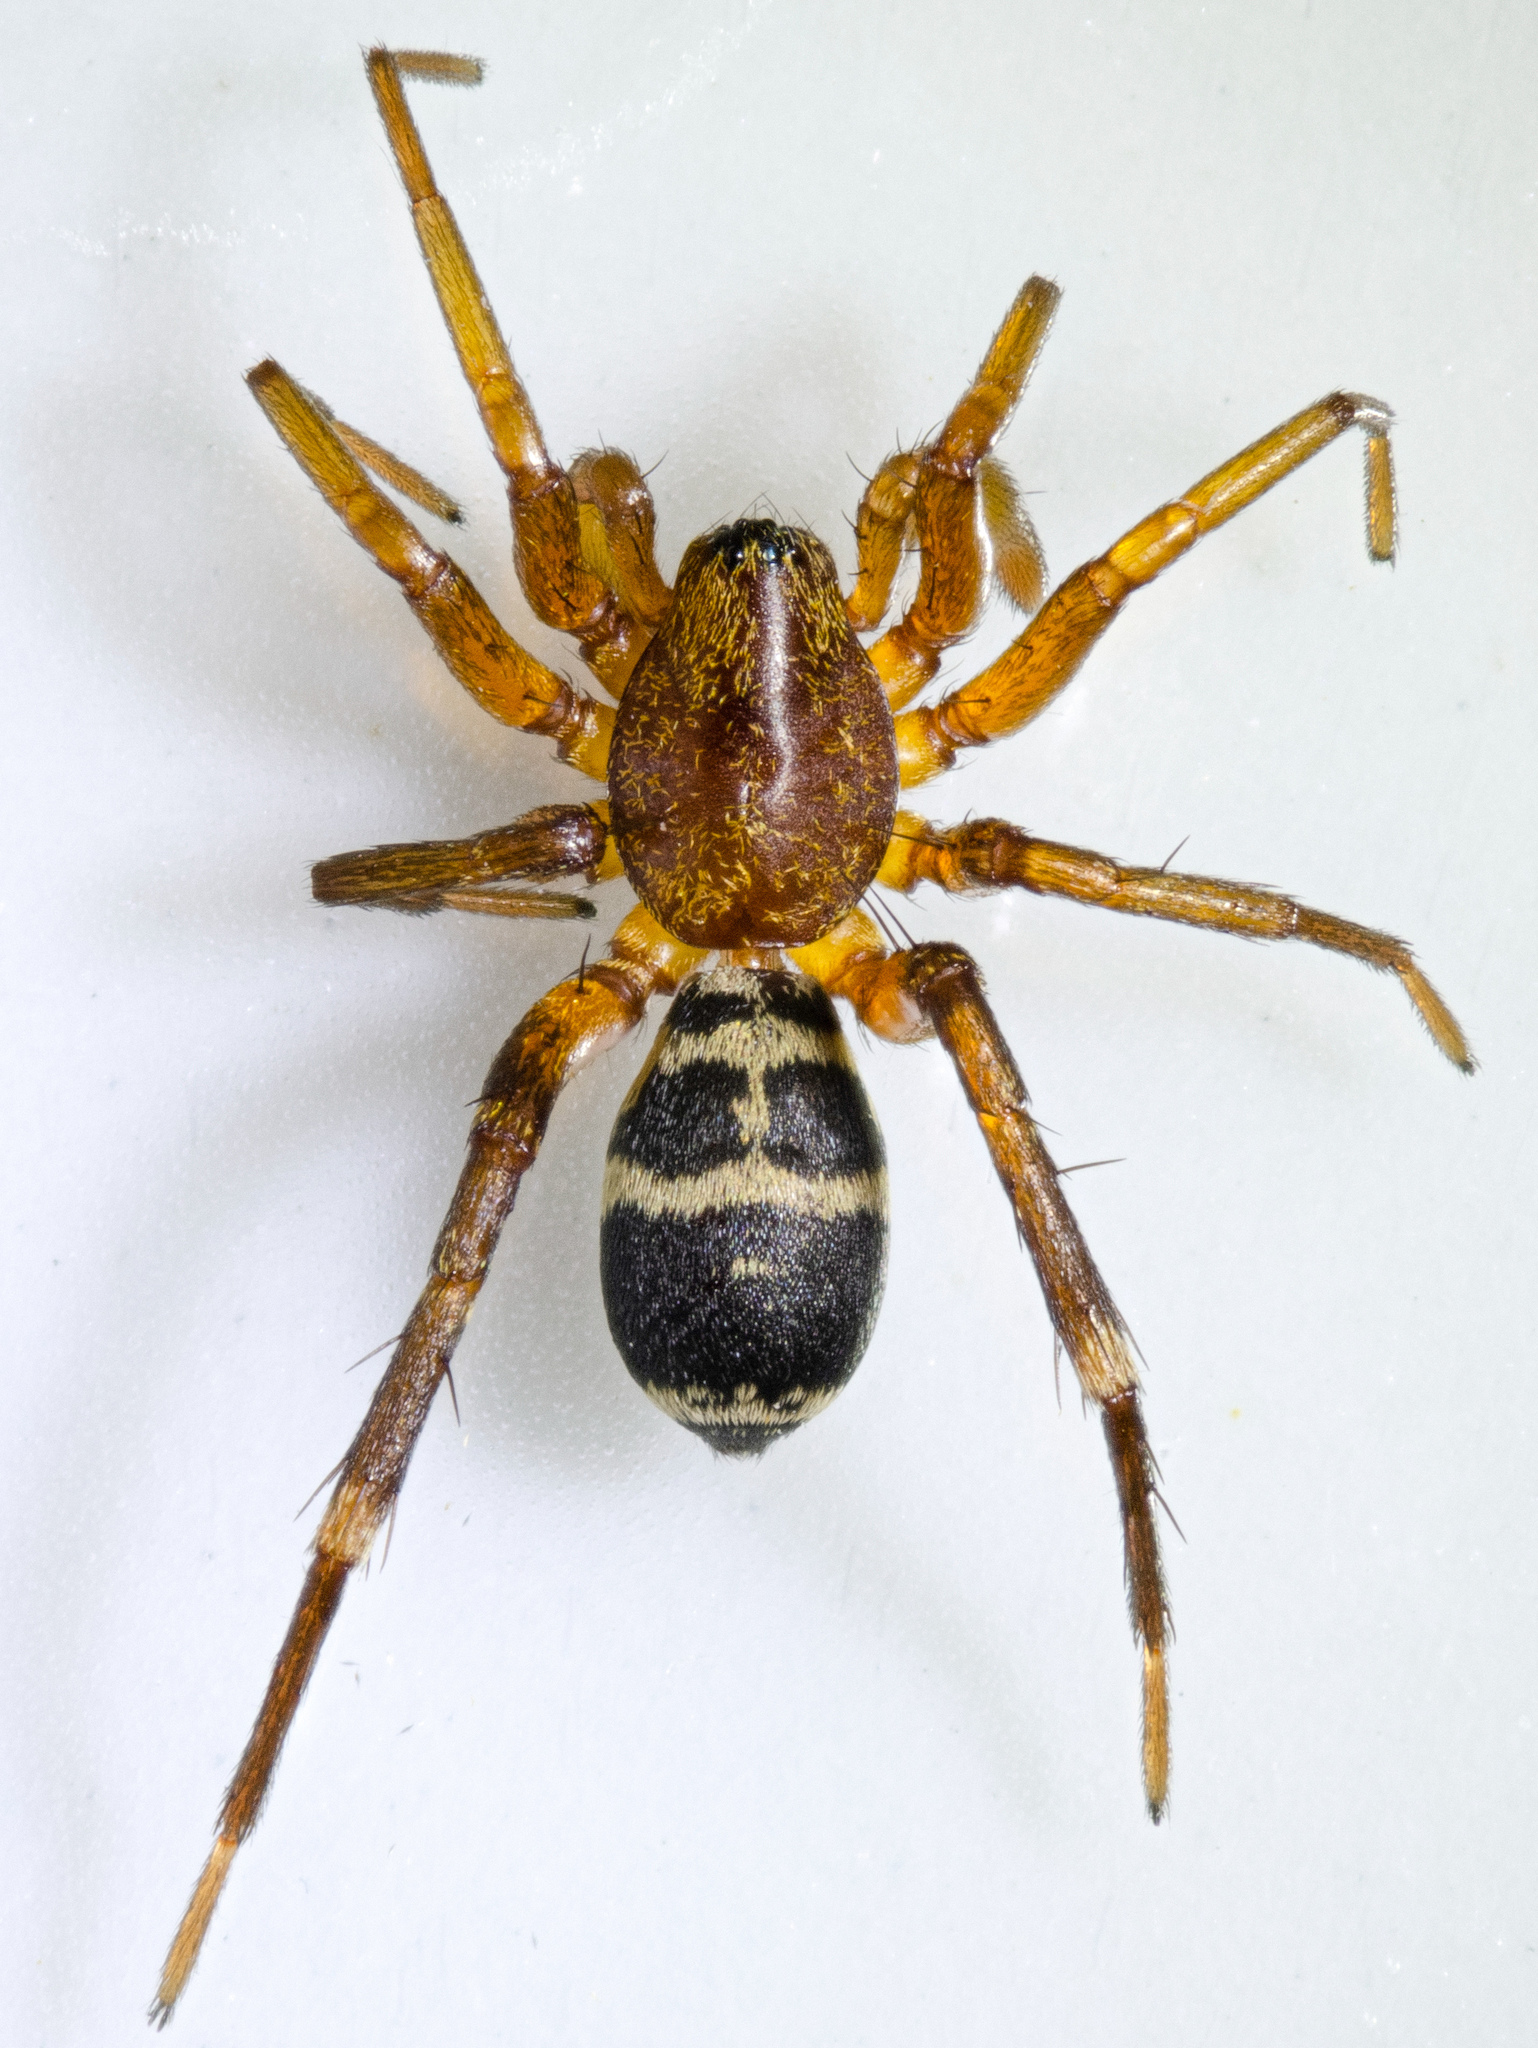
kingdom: Animalia
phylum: Arthropoda
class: Arachnida
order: Araneae
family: Corinnidae
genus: Castianeira
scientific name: Castianeira thalia
